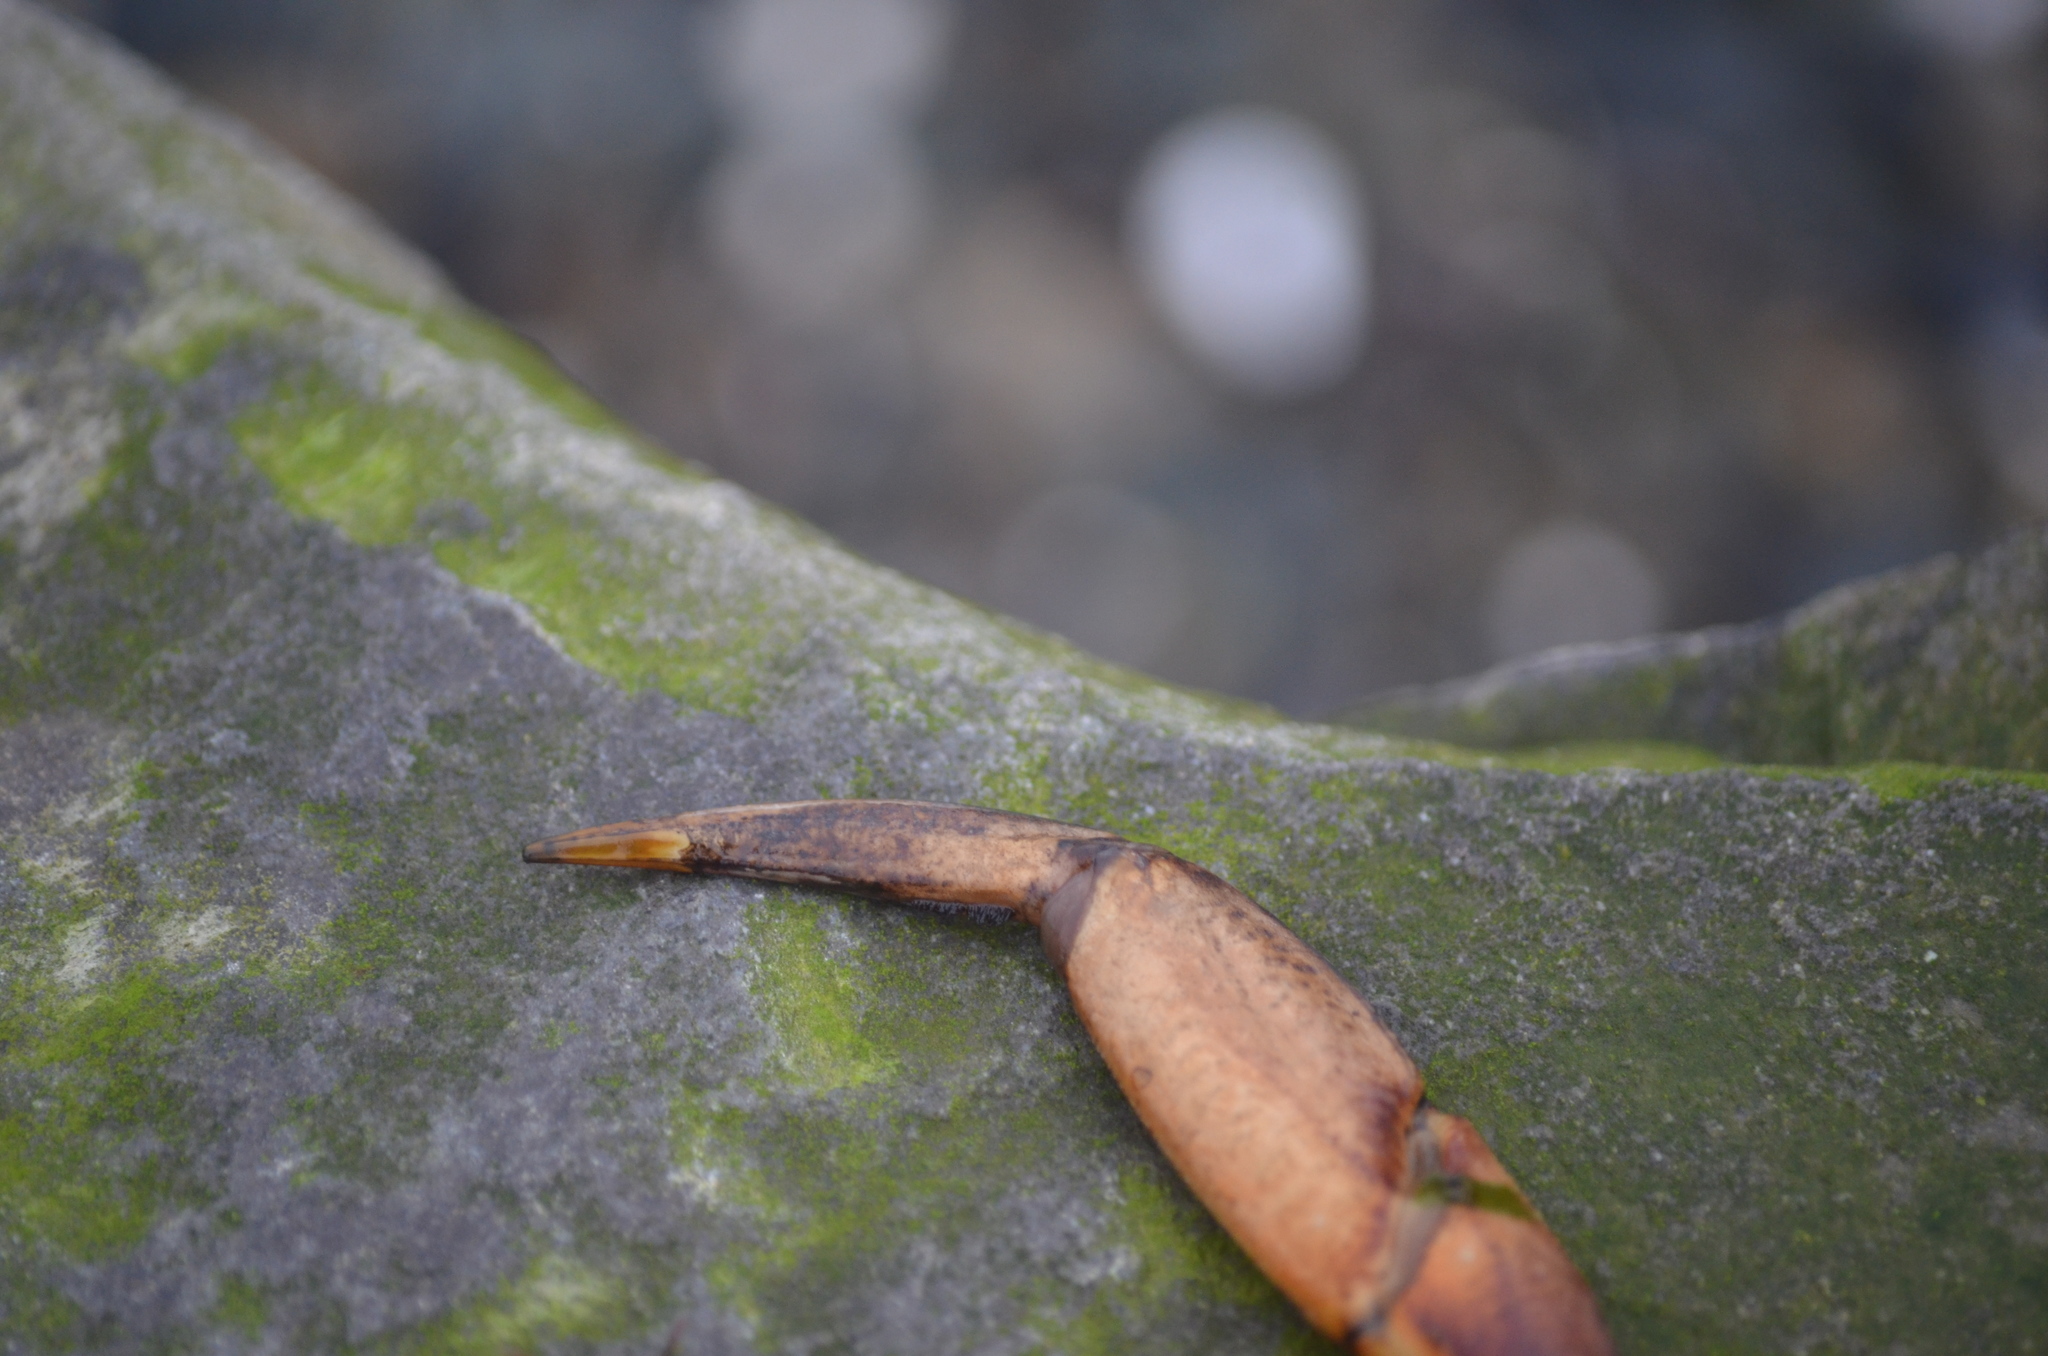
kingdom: Animalia
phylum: Arthropoda
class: Malacostraca
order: Decapoda
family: Cancridae
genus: Cancer
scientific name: Cancer productus
